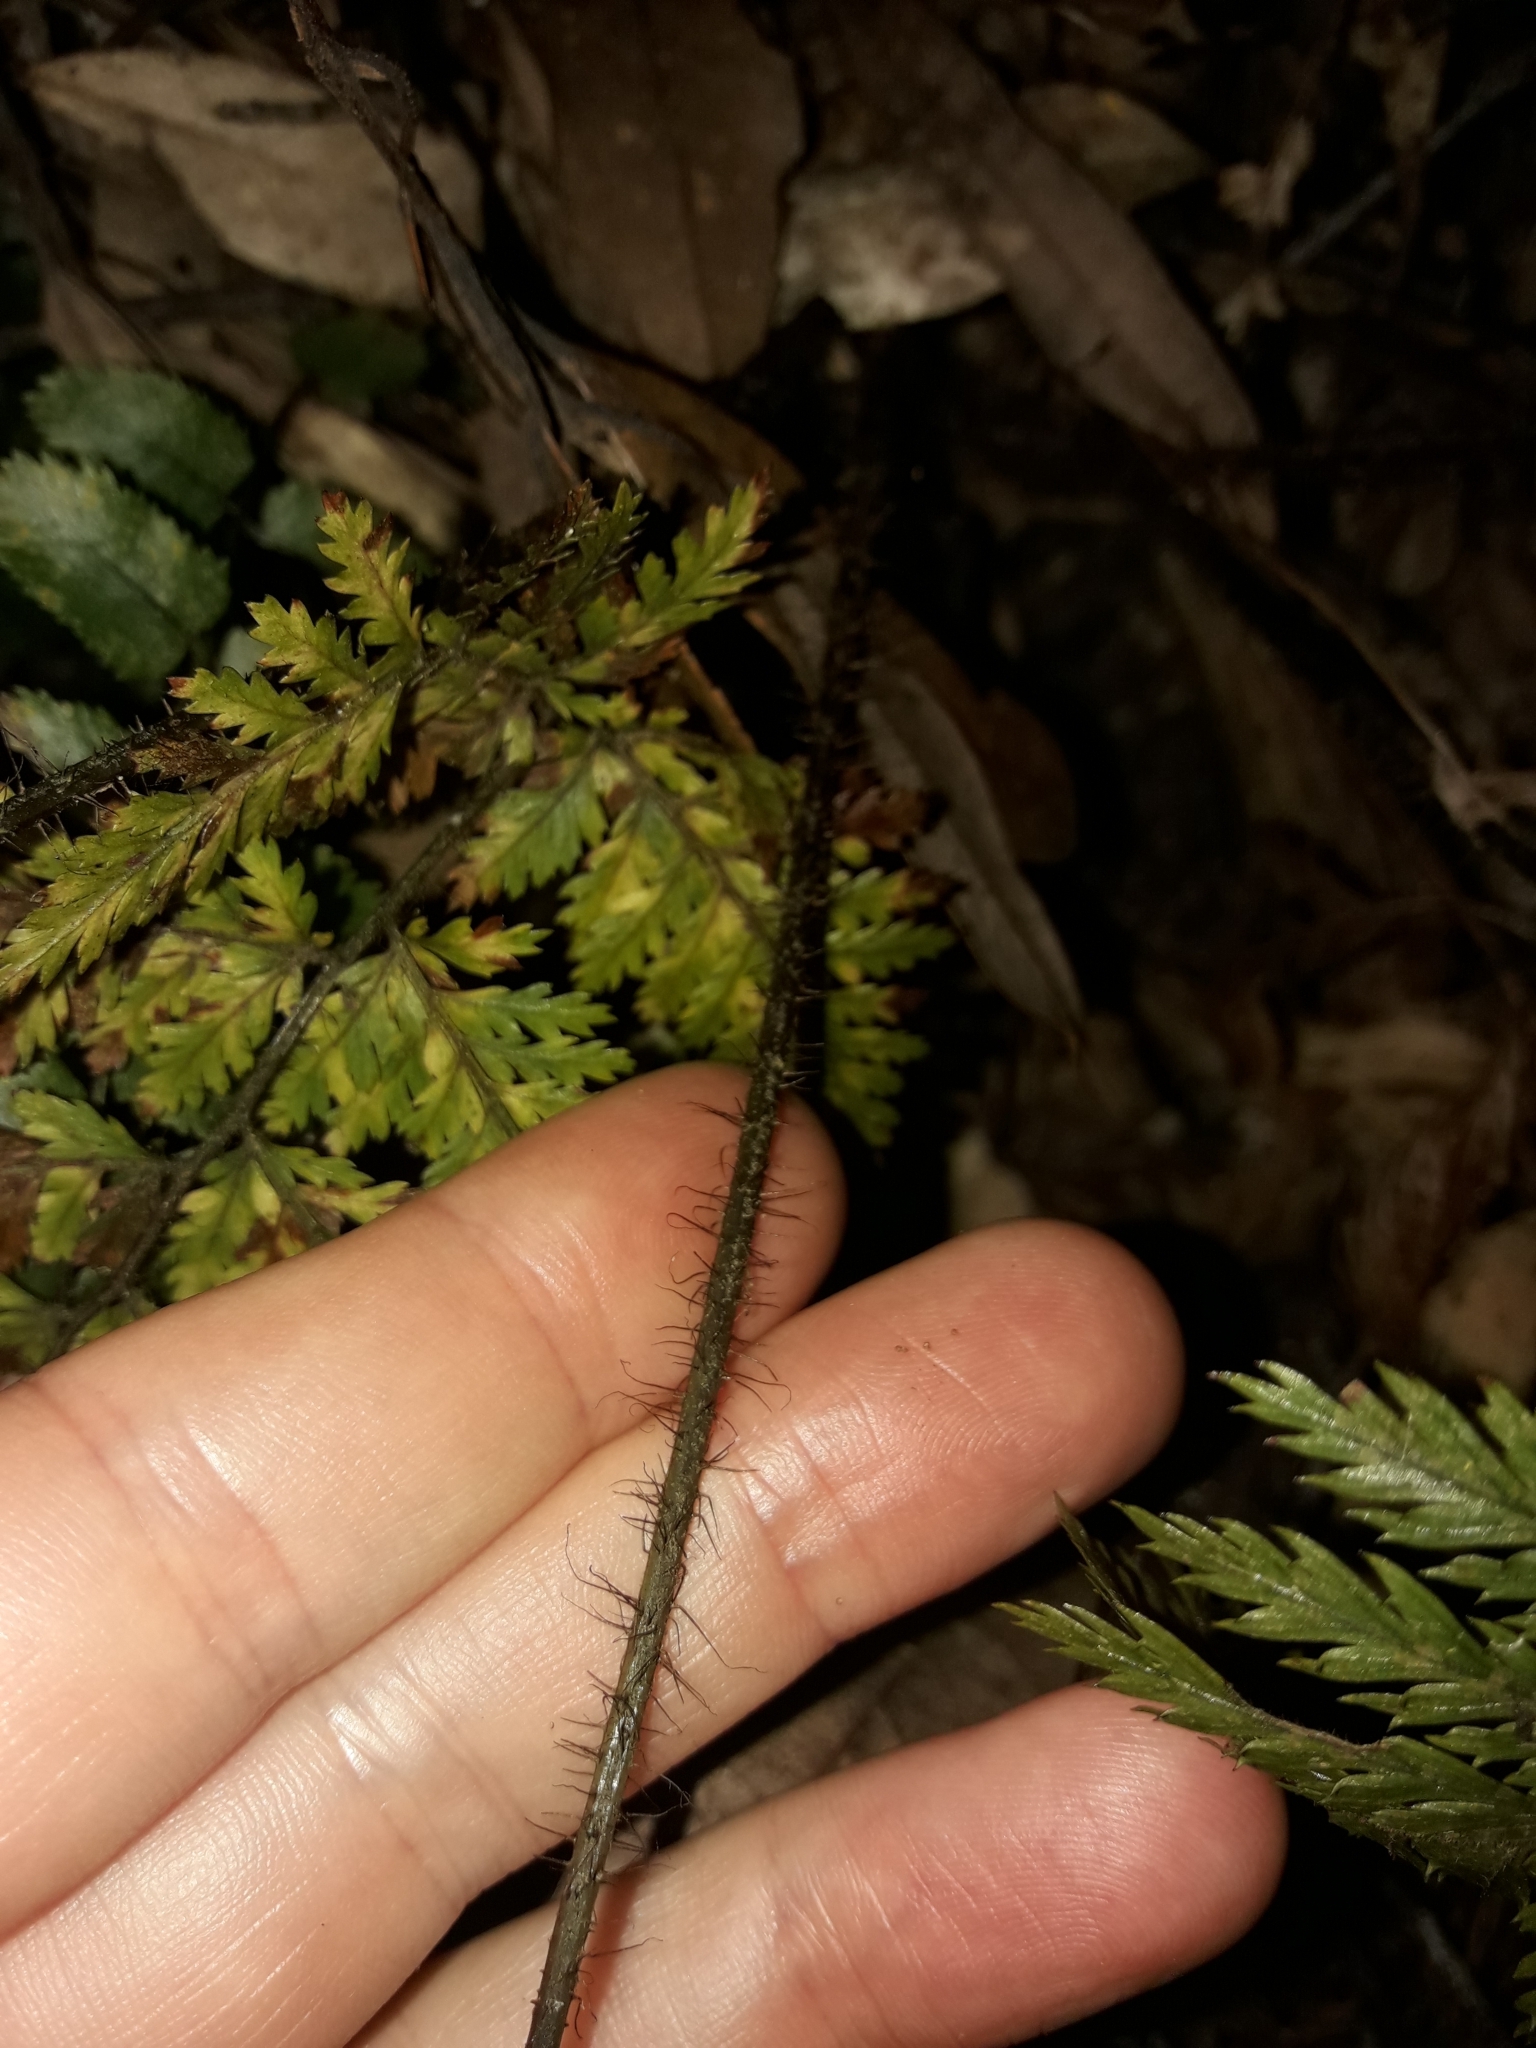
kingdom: Plantae
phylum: Tracheophyta
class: Polypodiopsida
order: Polypodiales
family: Dryopteridaceae
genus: Lastreopsis
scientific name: Lastreopsis hispida
